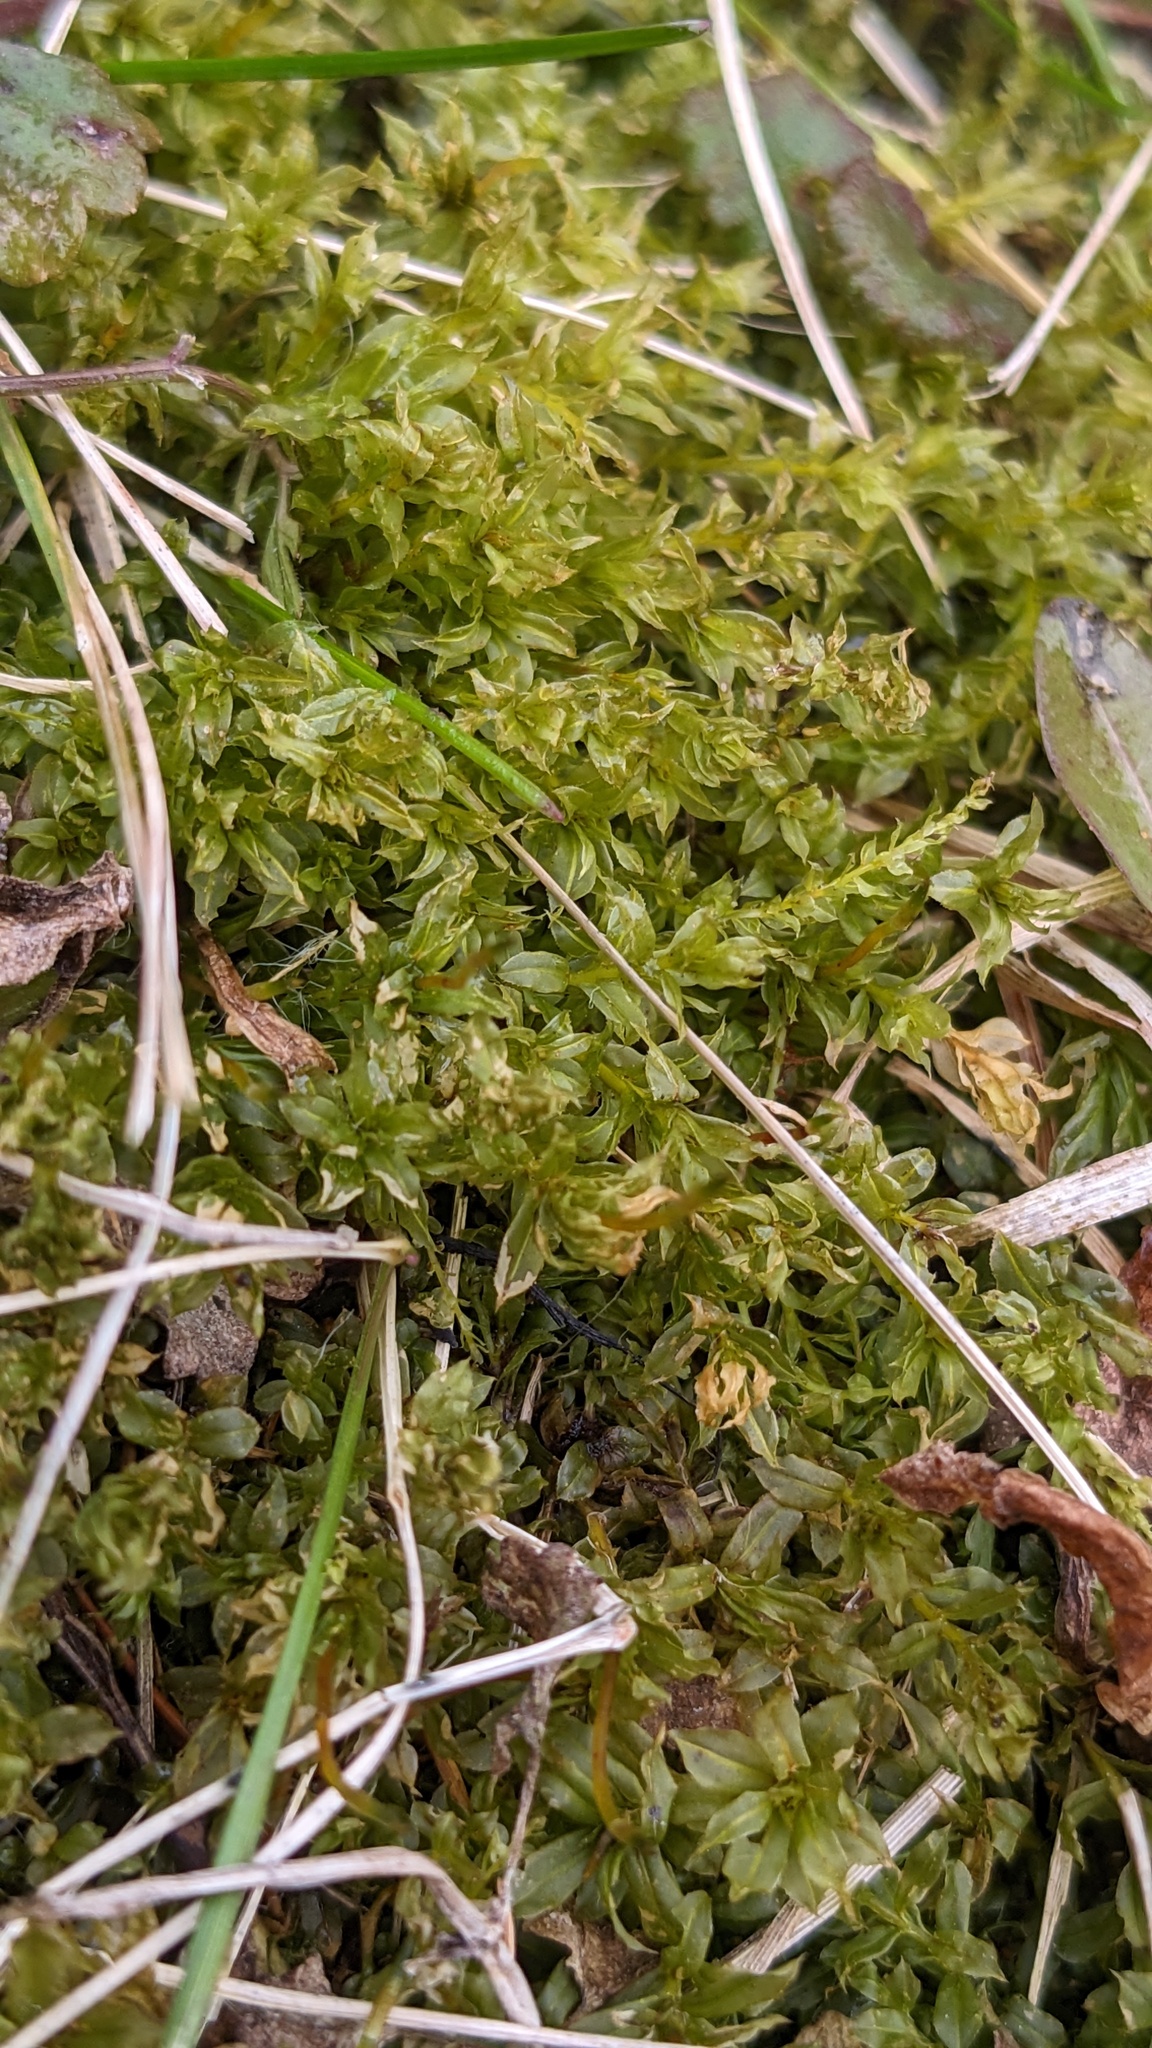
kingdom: Plantae
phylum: Bryophyta
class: Bryopsida
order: Bryales
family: Mniaceae
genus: Plagiomnium
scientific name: Plagiomnium cuspidatum
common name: Woodsy leafy moss
